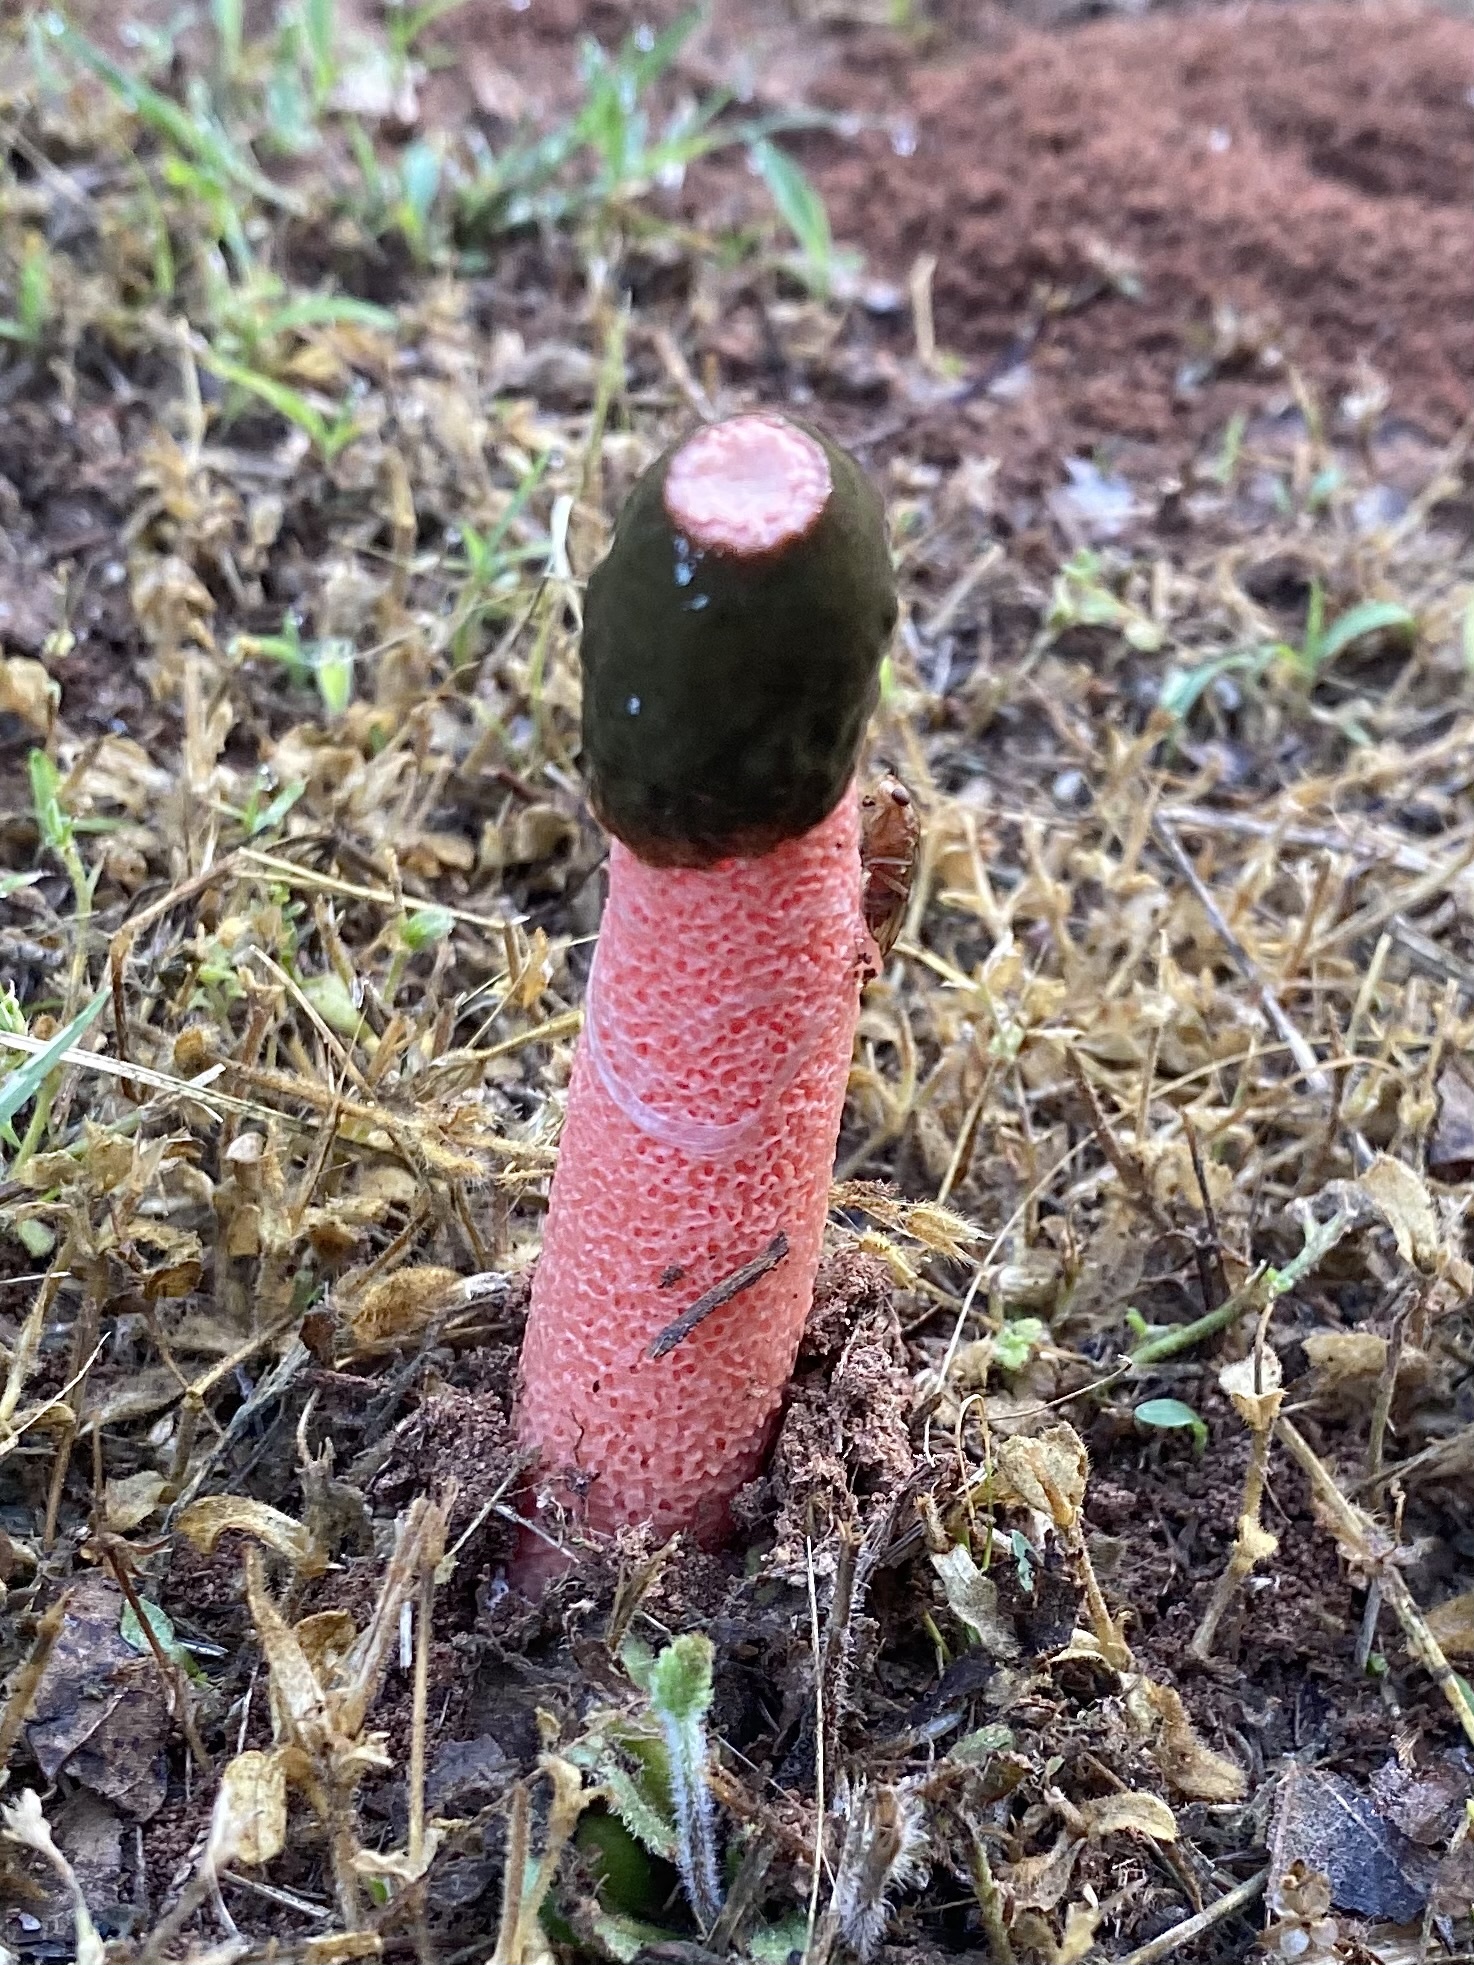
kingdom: Fungi
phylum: Basidiomycota
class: Agaricomycetes
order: Phallales
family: Phallaceae
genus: Phallus
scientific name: Phallus rubicundus
